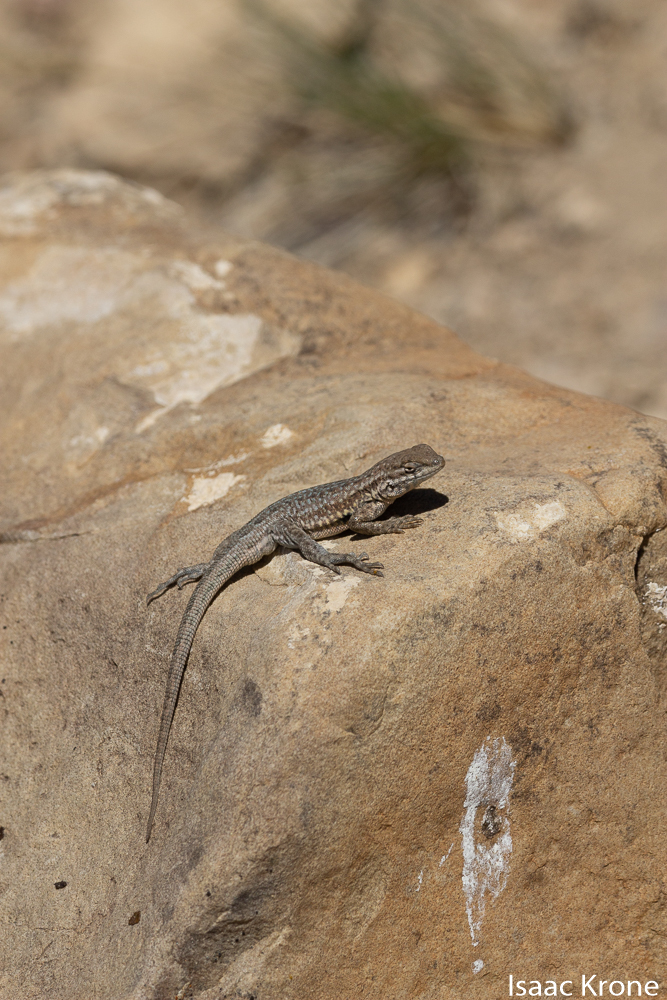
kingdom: Animalia
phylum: Chordata
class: Squamata
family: Phrynosomatidae
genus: Uta
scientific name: Uta stansburiana
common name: Side-blotched lizard
